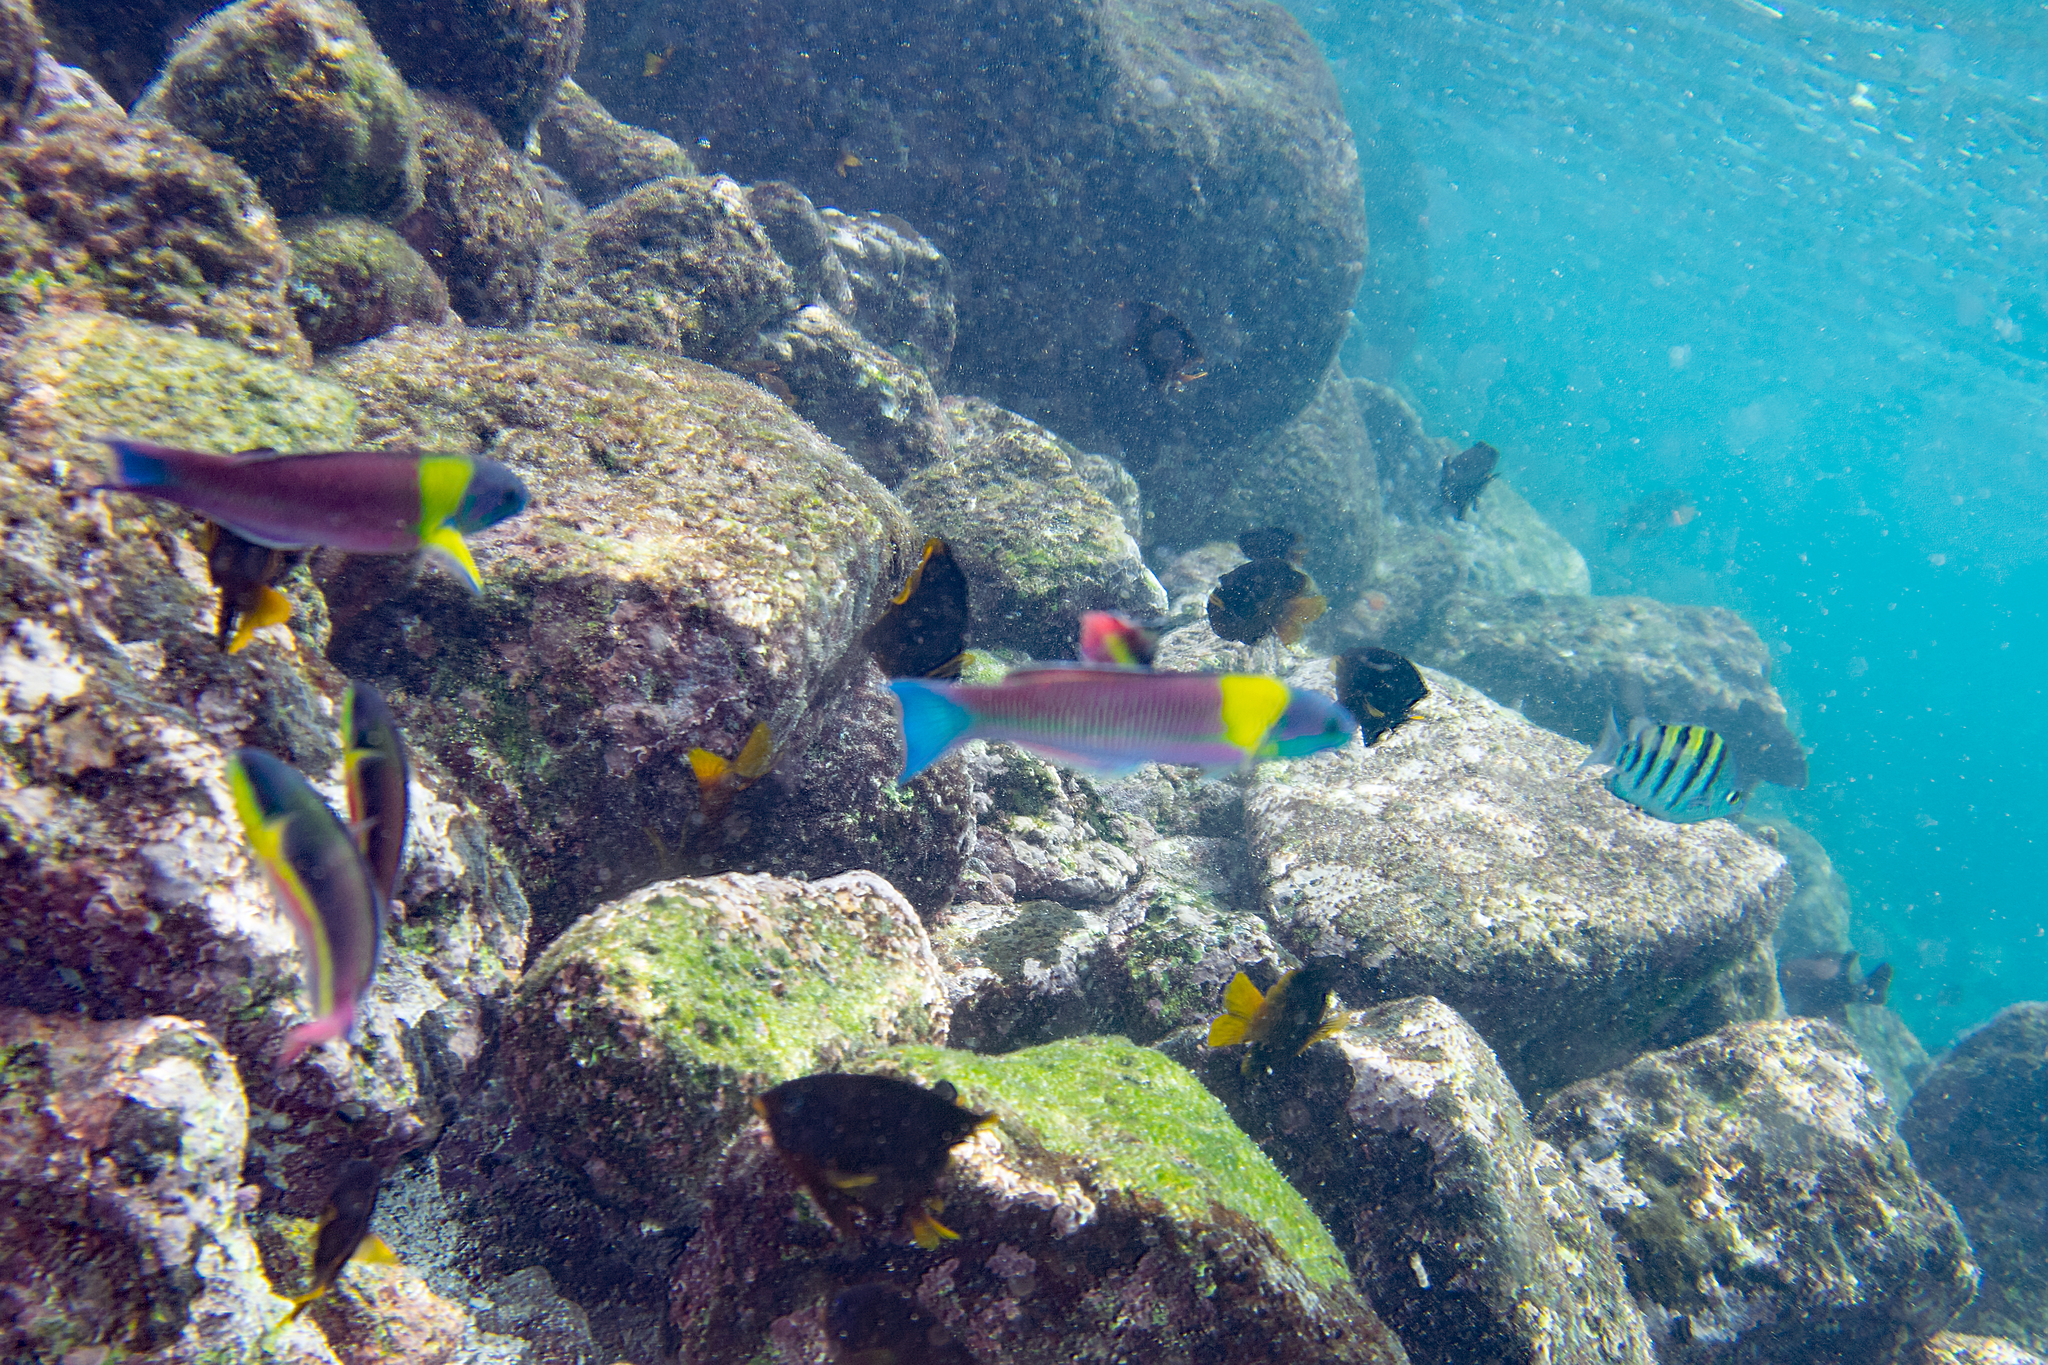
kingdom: Animalia
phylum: Chordata
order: Perciformes
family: Labridae
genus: Thalassoma
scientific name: Thalassoma lucasanum
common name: Cortez rainbow wrasse
